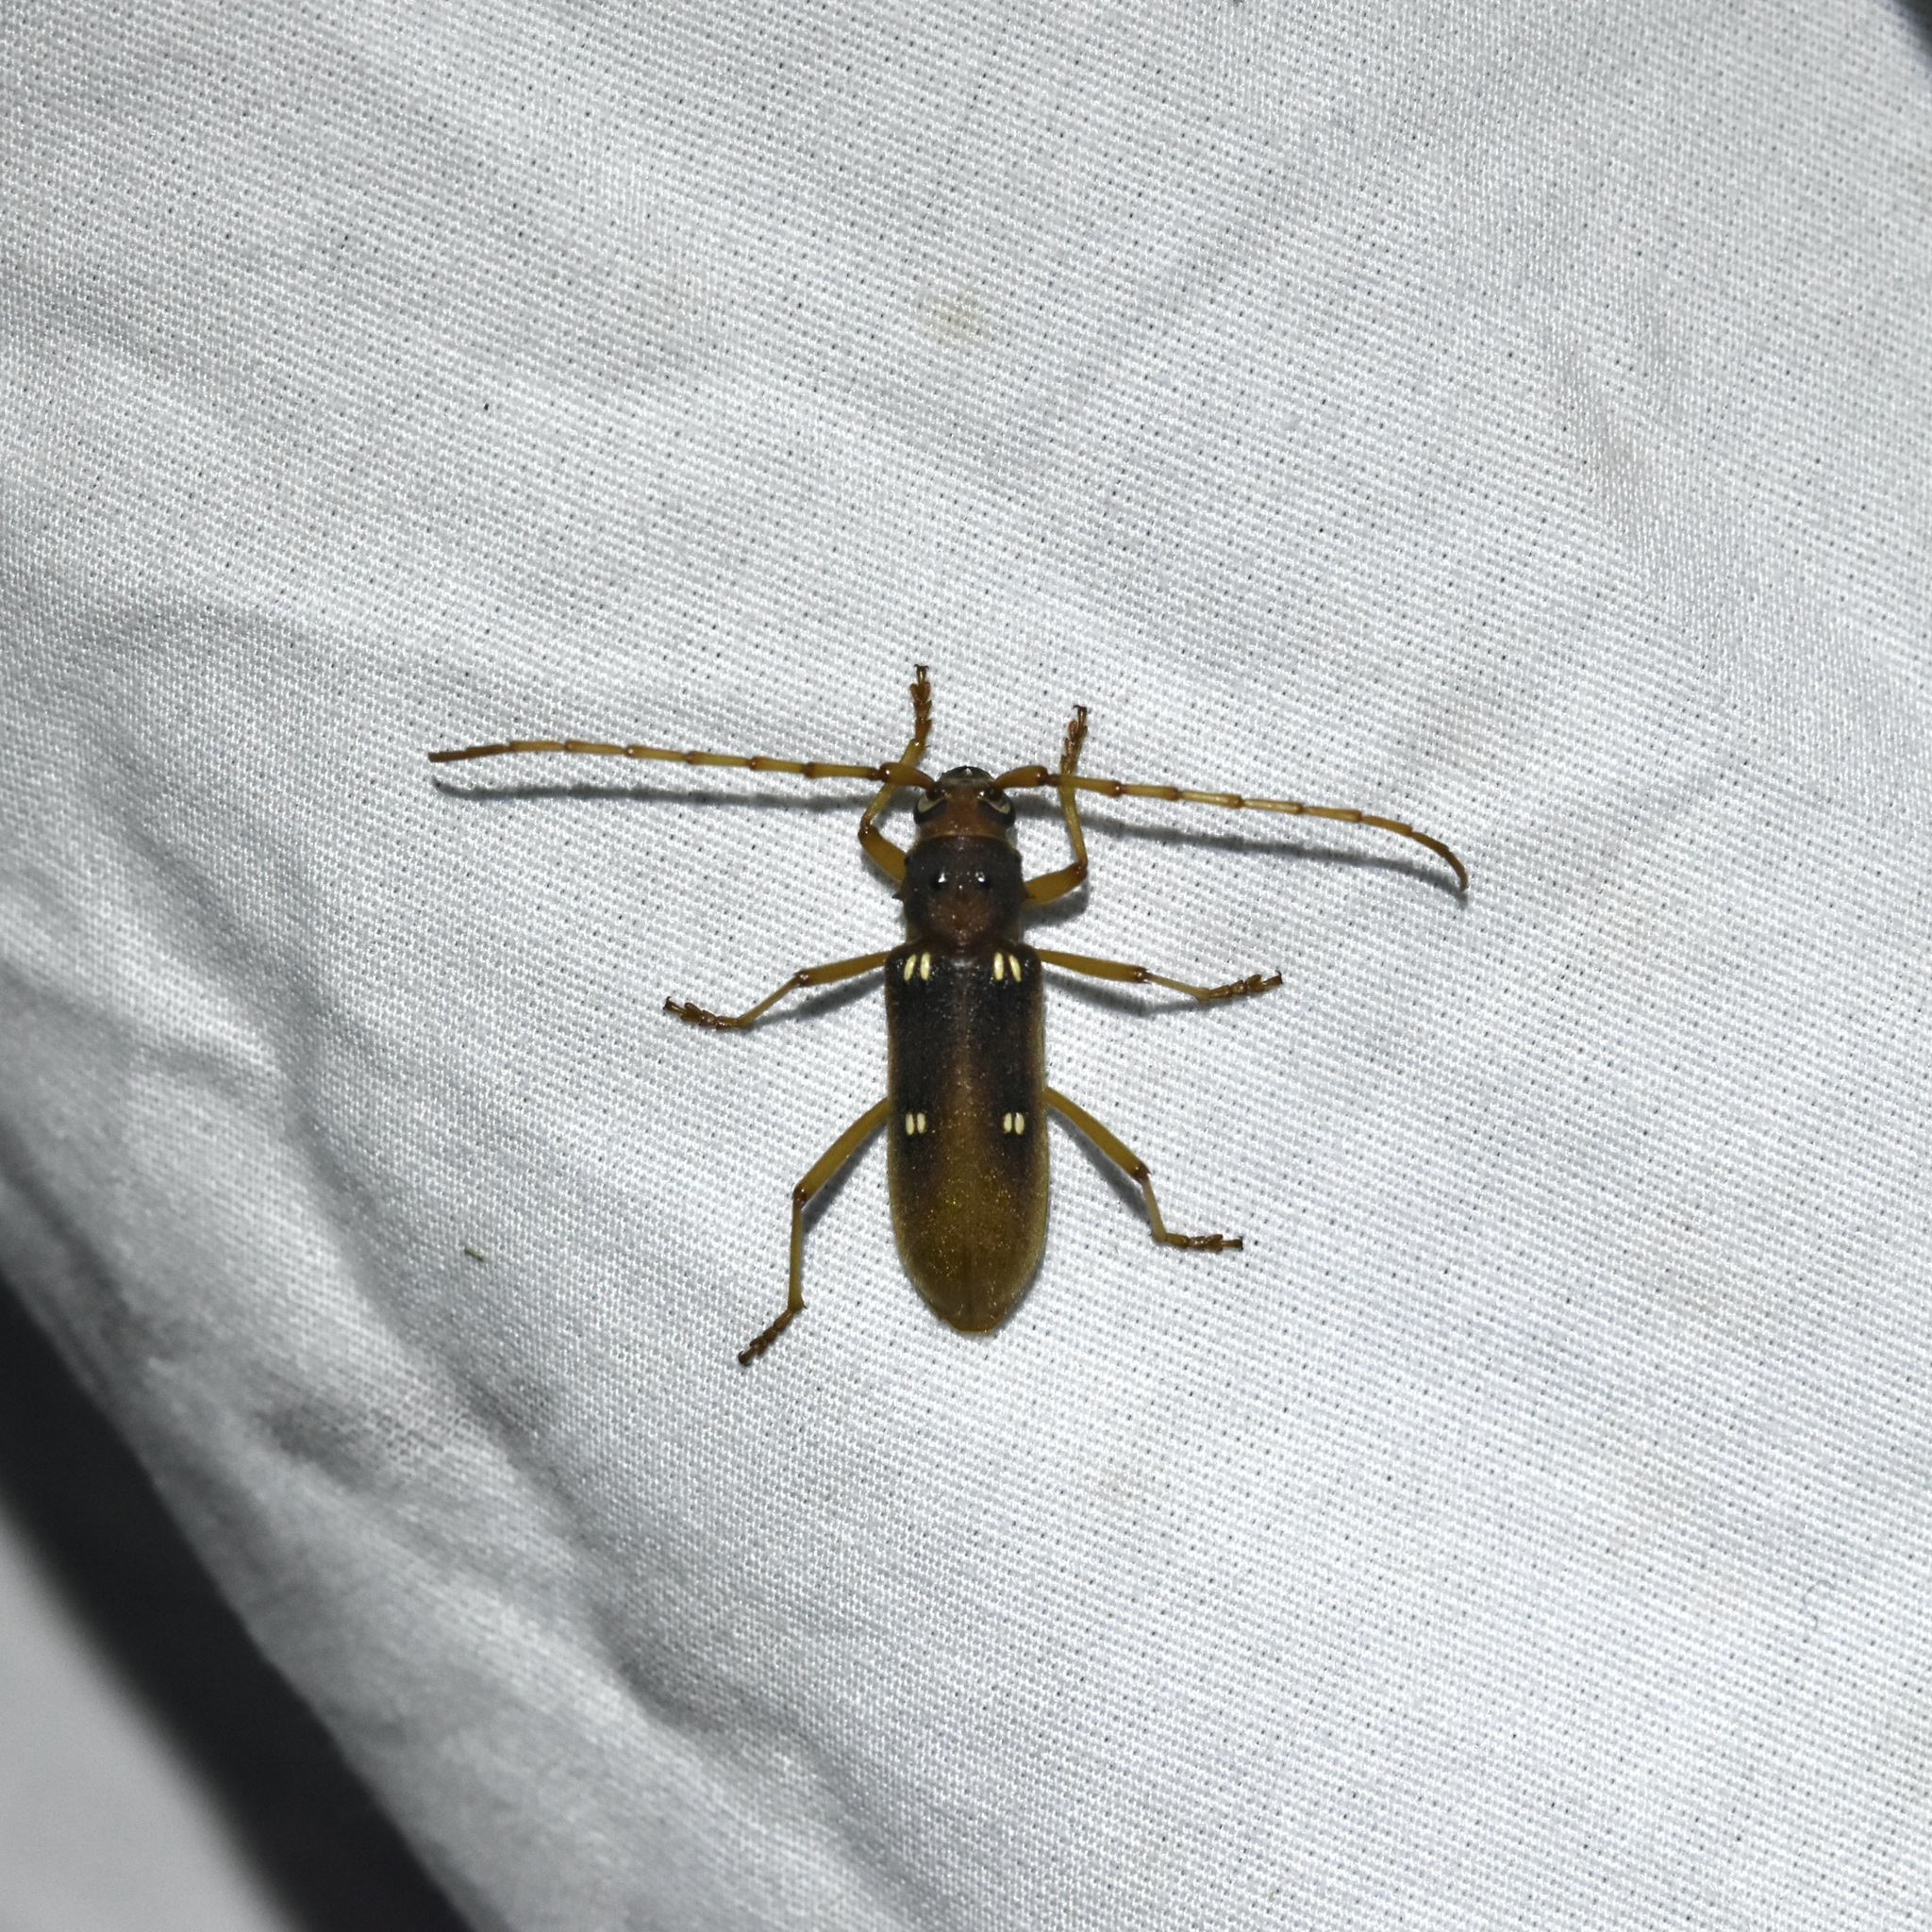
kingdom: Animalia
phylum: Arthropoda
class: Insecta
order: Coleoptera
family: Cerambycidae
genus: Eburia
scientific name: Eburia haldemani
